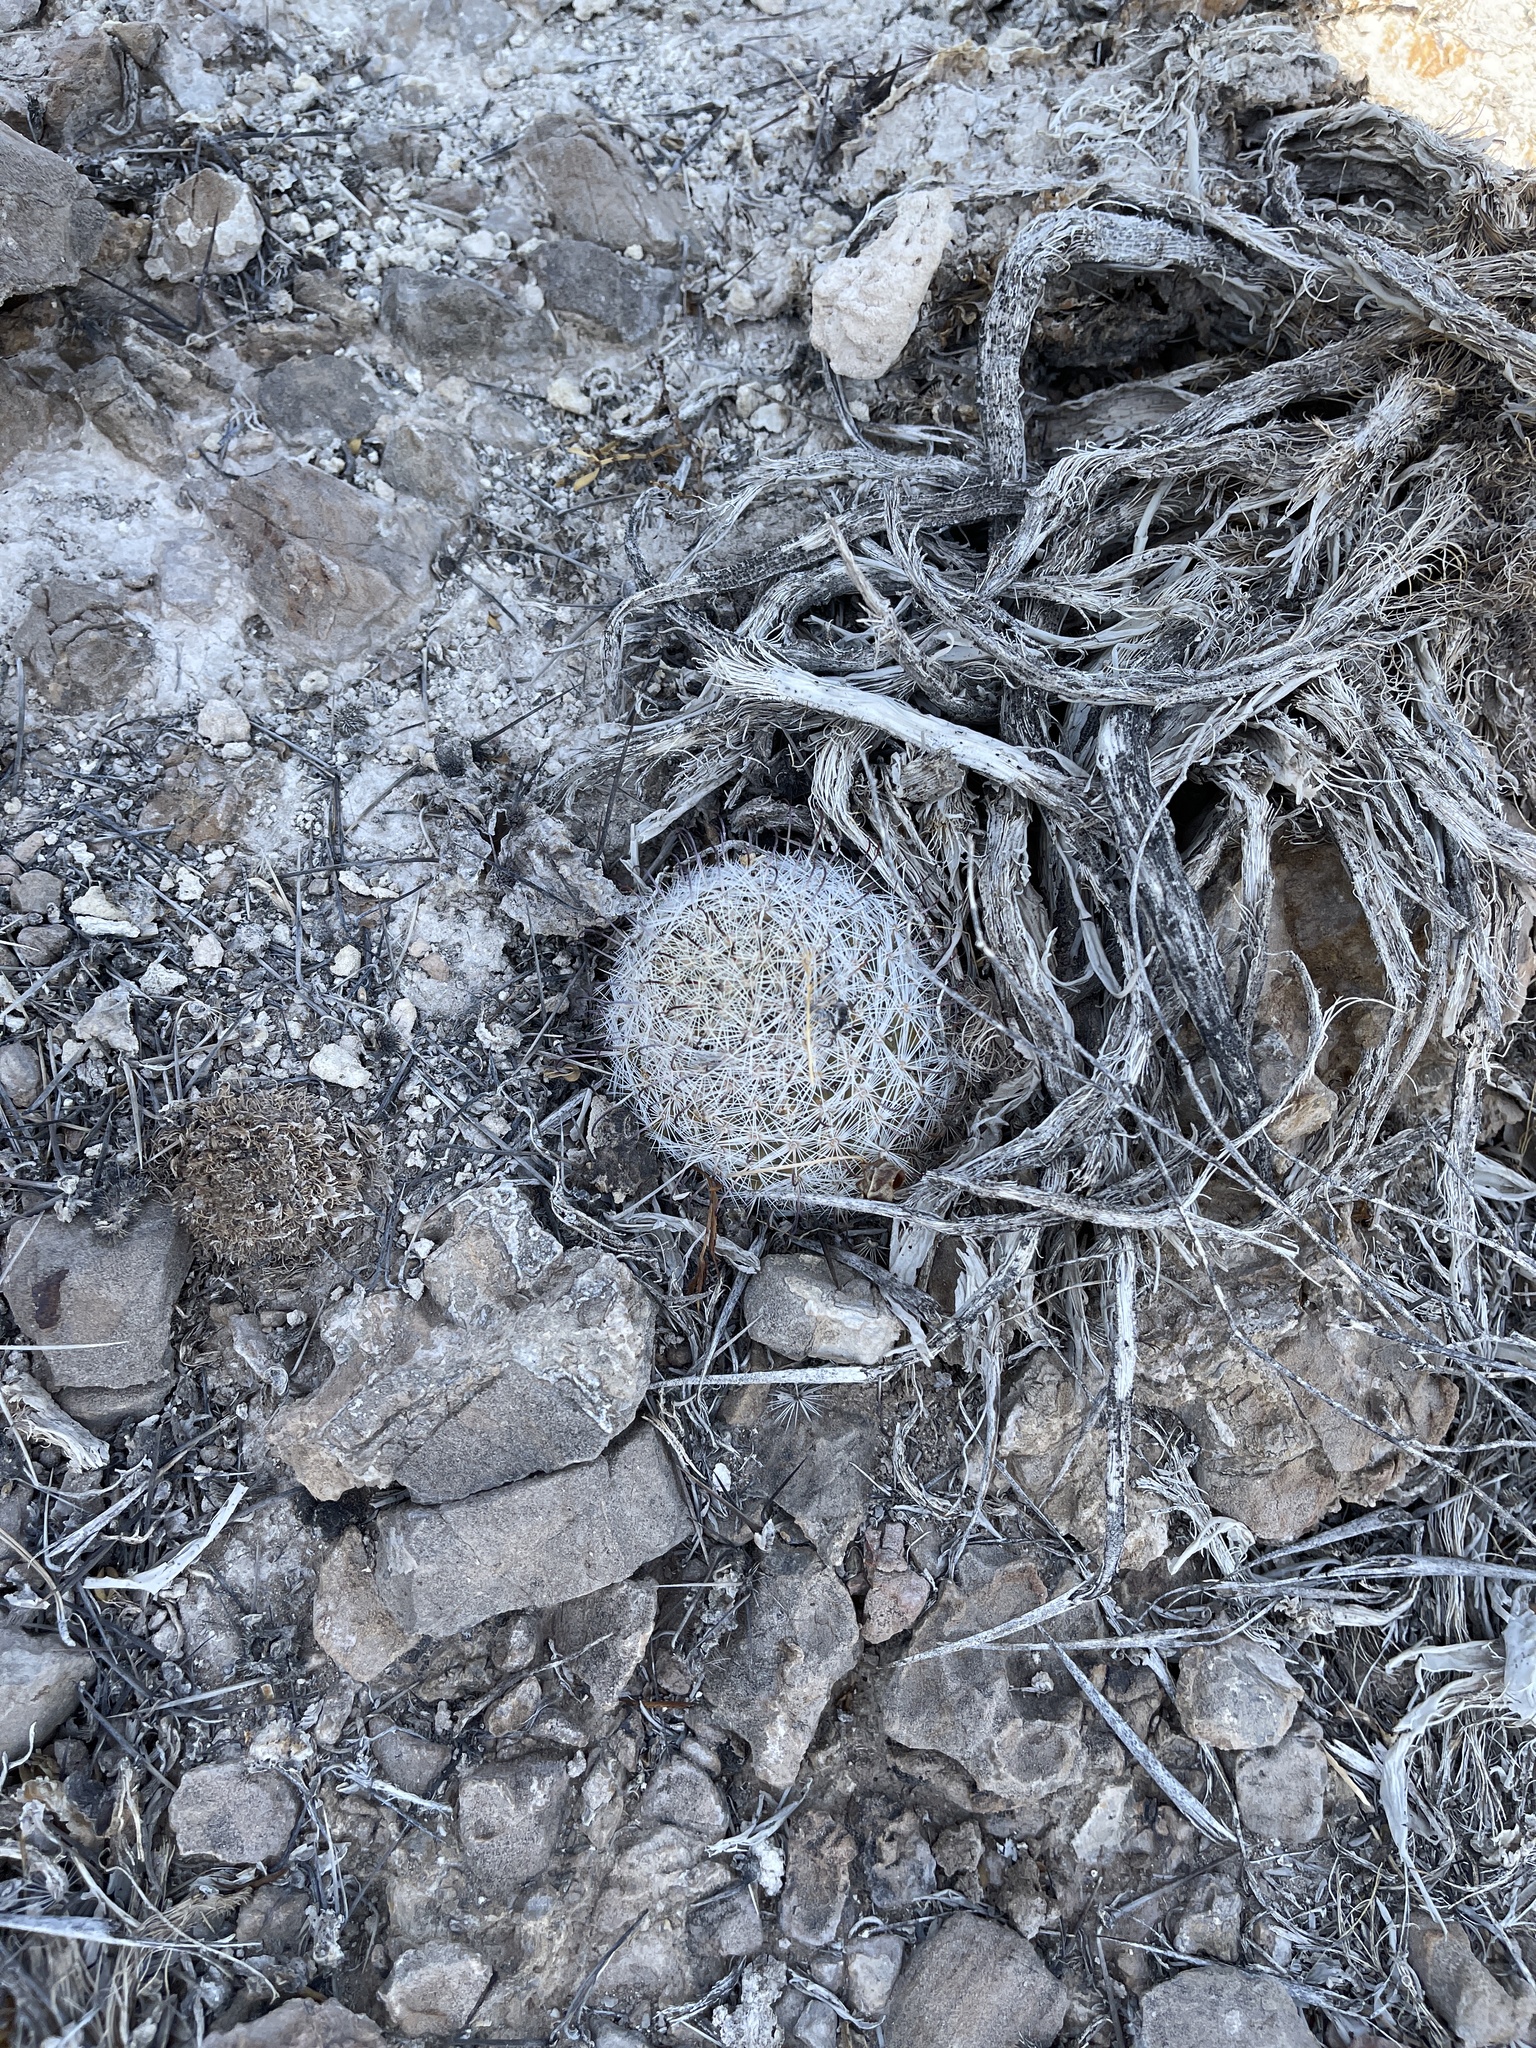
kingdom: Plantae
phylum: Tracheophyta
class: Magnoliopsida
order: Caryophyllales
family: Cactaceae
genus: Cochemiea
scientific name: Cochemiea grahamii
